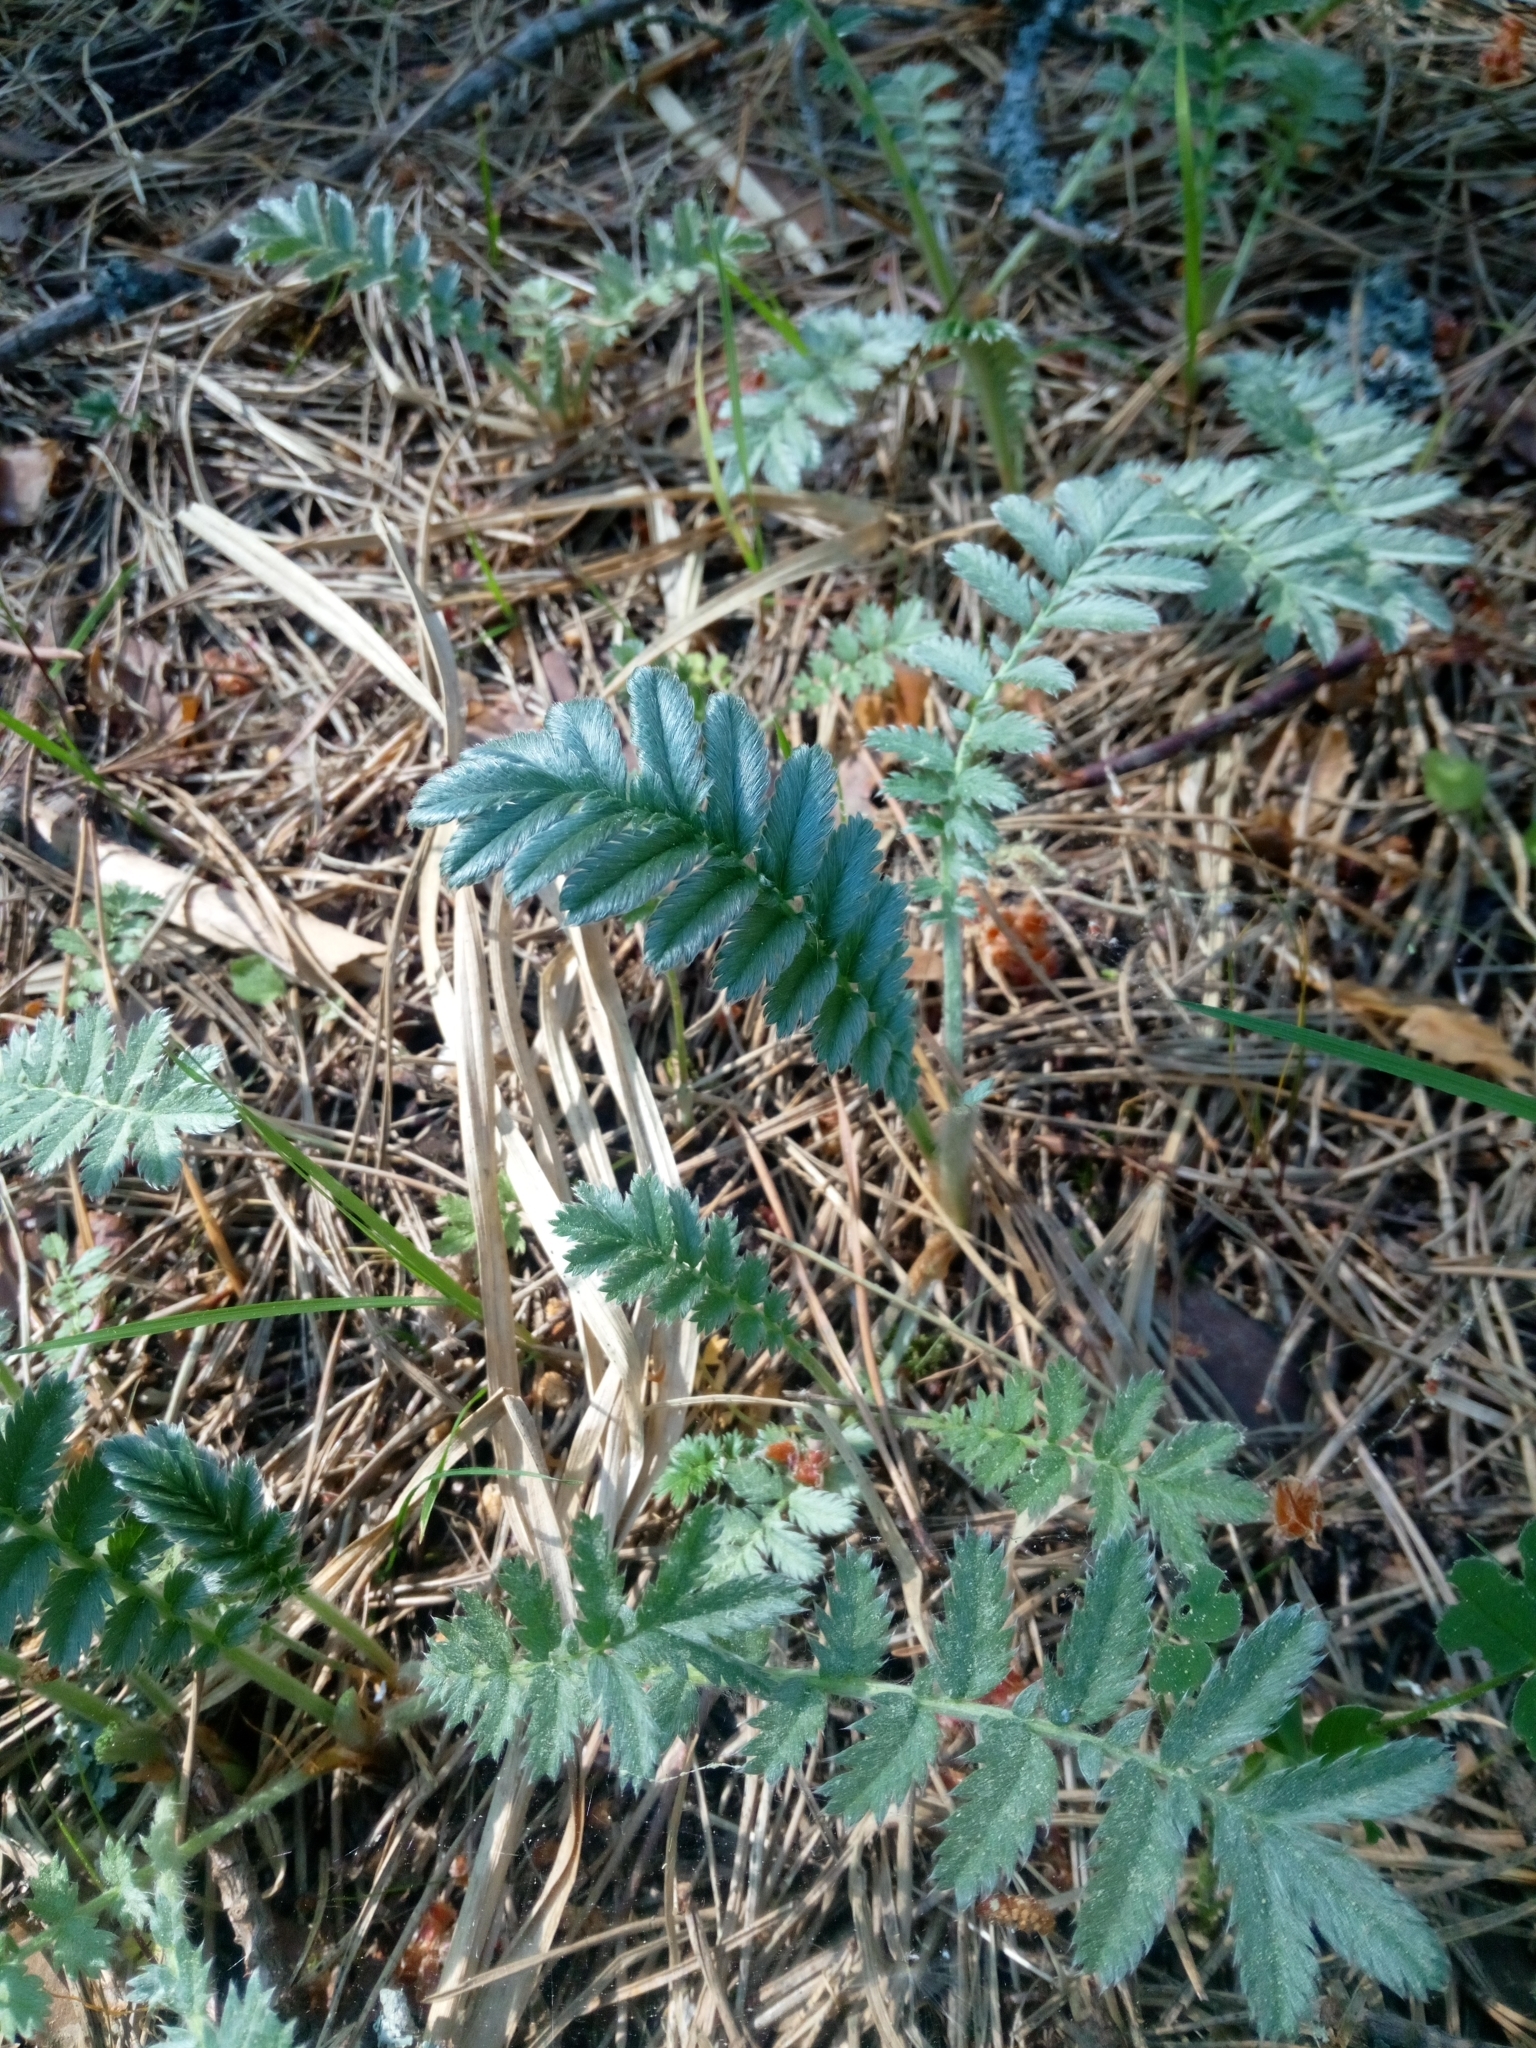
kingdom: Plantae
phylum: Tracheophyta
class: Magnoliopsida
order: Rosales
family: Rosaceae
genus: Argentina
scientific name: Argentina anserina
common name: Common silverweed
